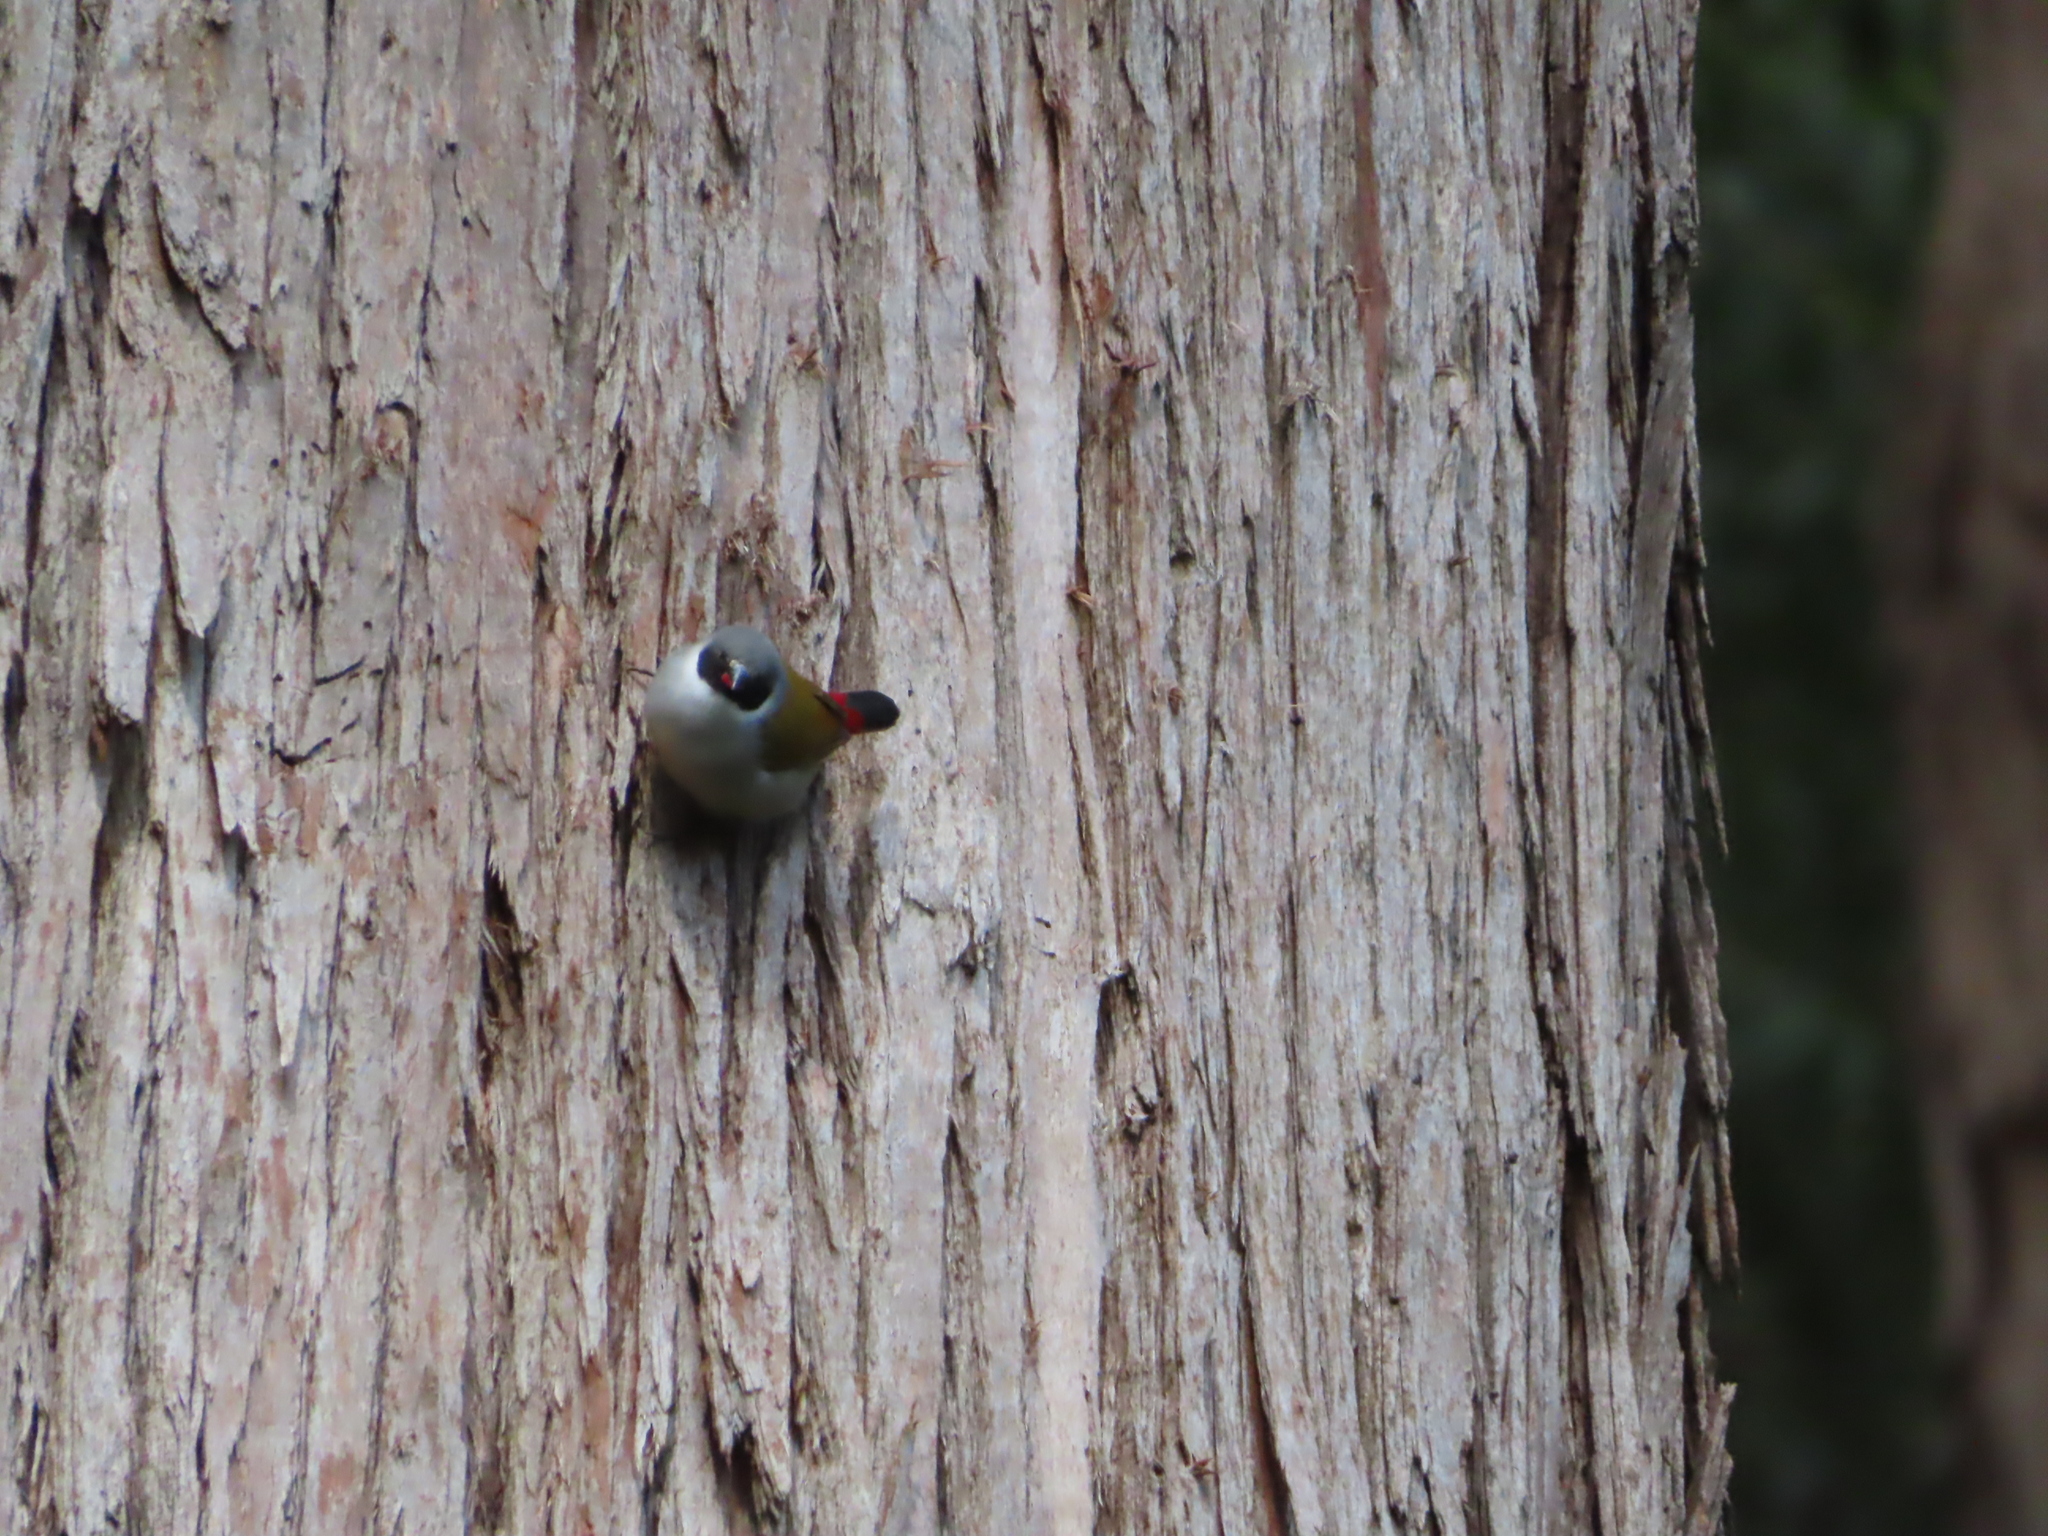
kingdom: Animalia
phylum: Chordata
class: Aves
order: Passeriformes
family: Estrildidae
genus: Coccopygia
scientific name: Coccopygia melanotis
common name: Swee waxbill
